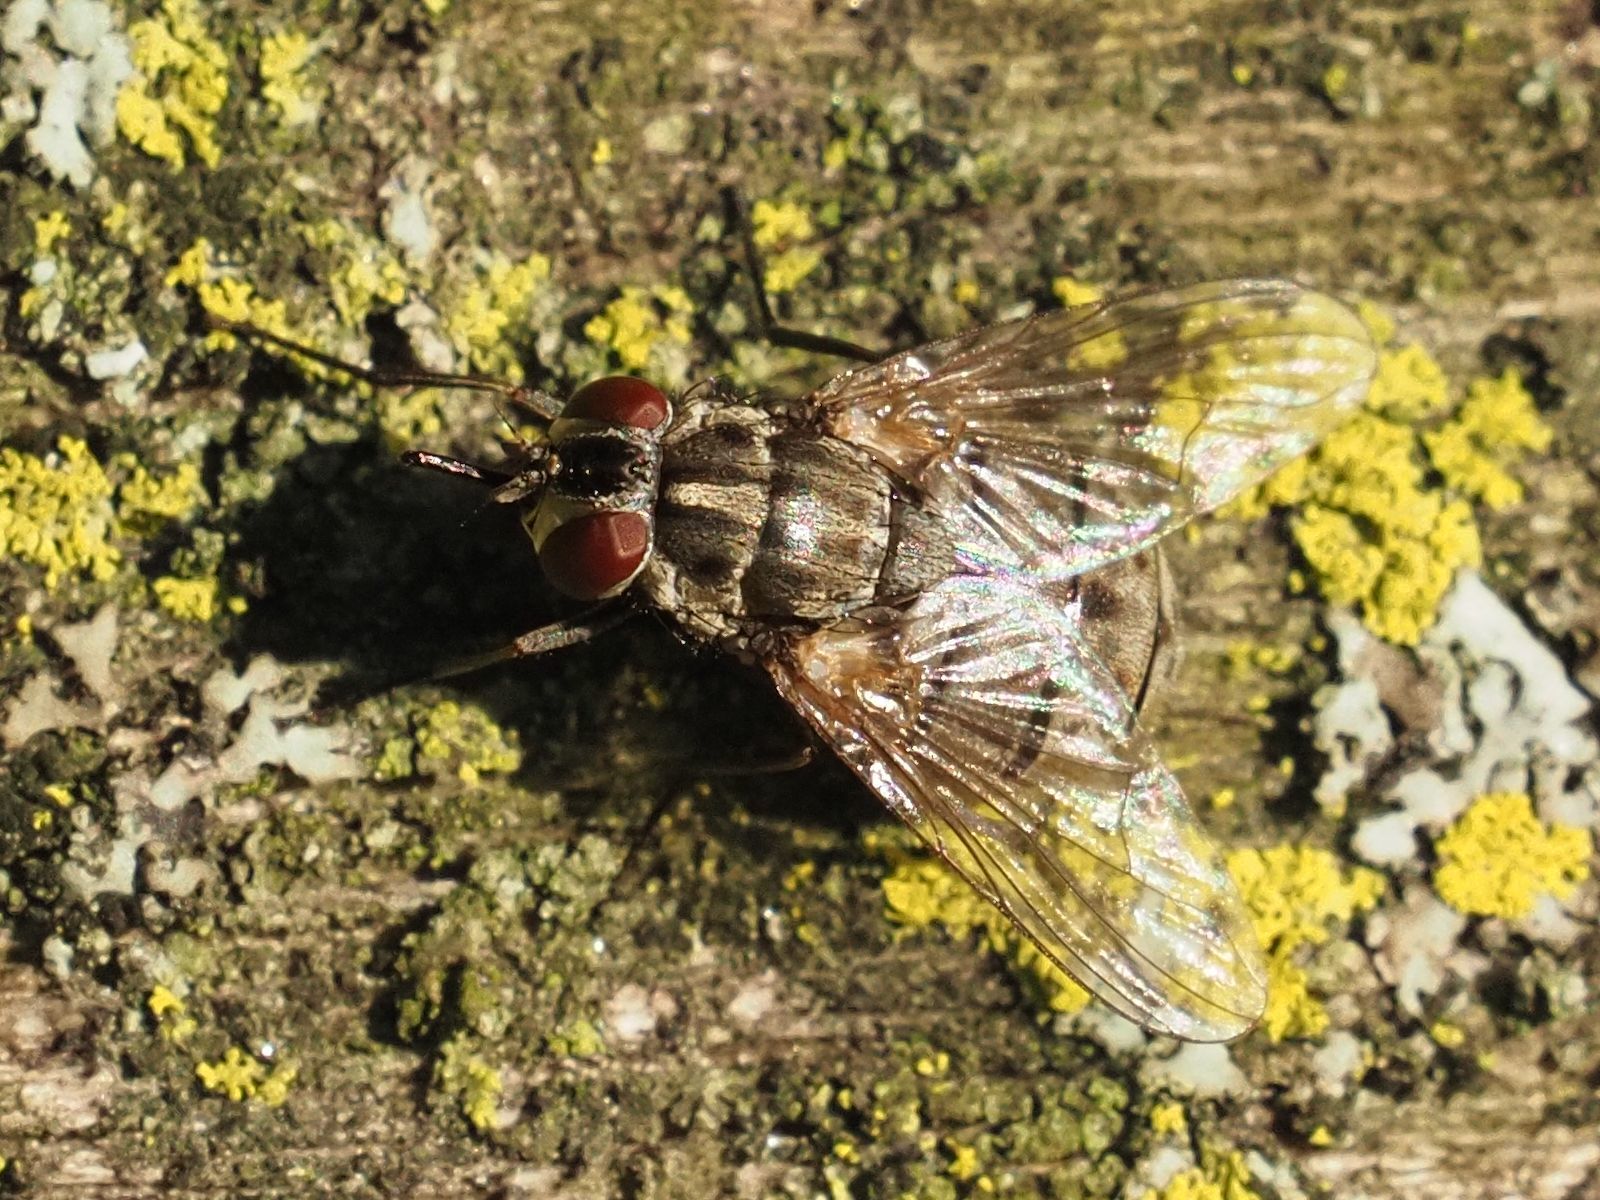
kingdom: Animalia
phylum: Arthropoda
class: Insecta
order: Diptera
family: Muscidae
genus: Stomoxys
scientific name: Stomoxys calcitrans
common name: Stable fly
